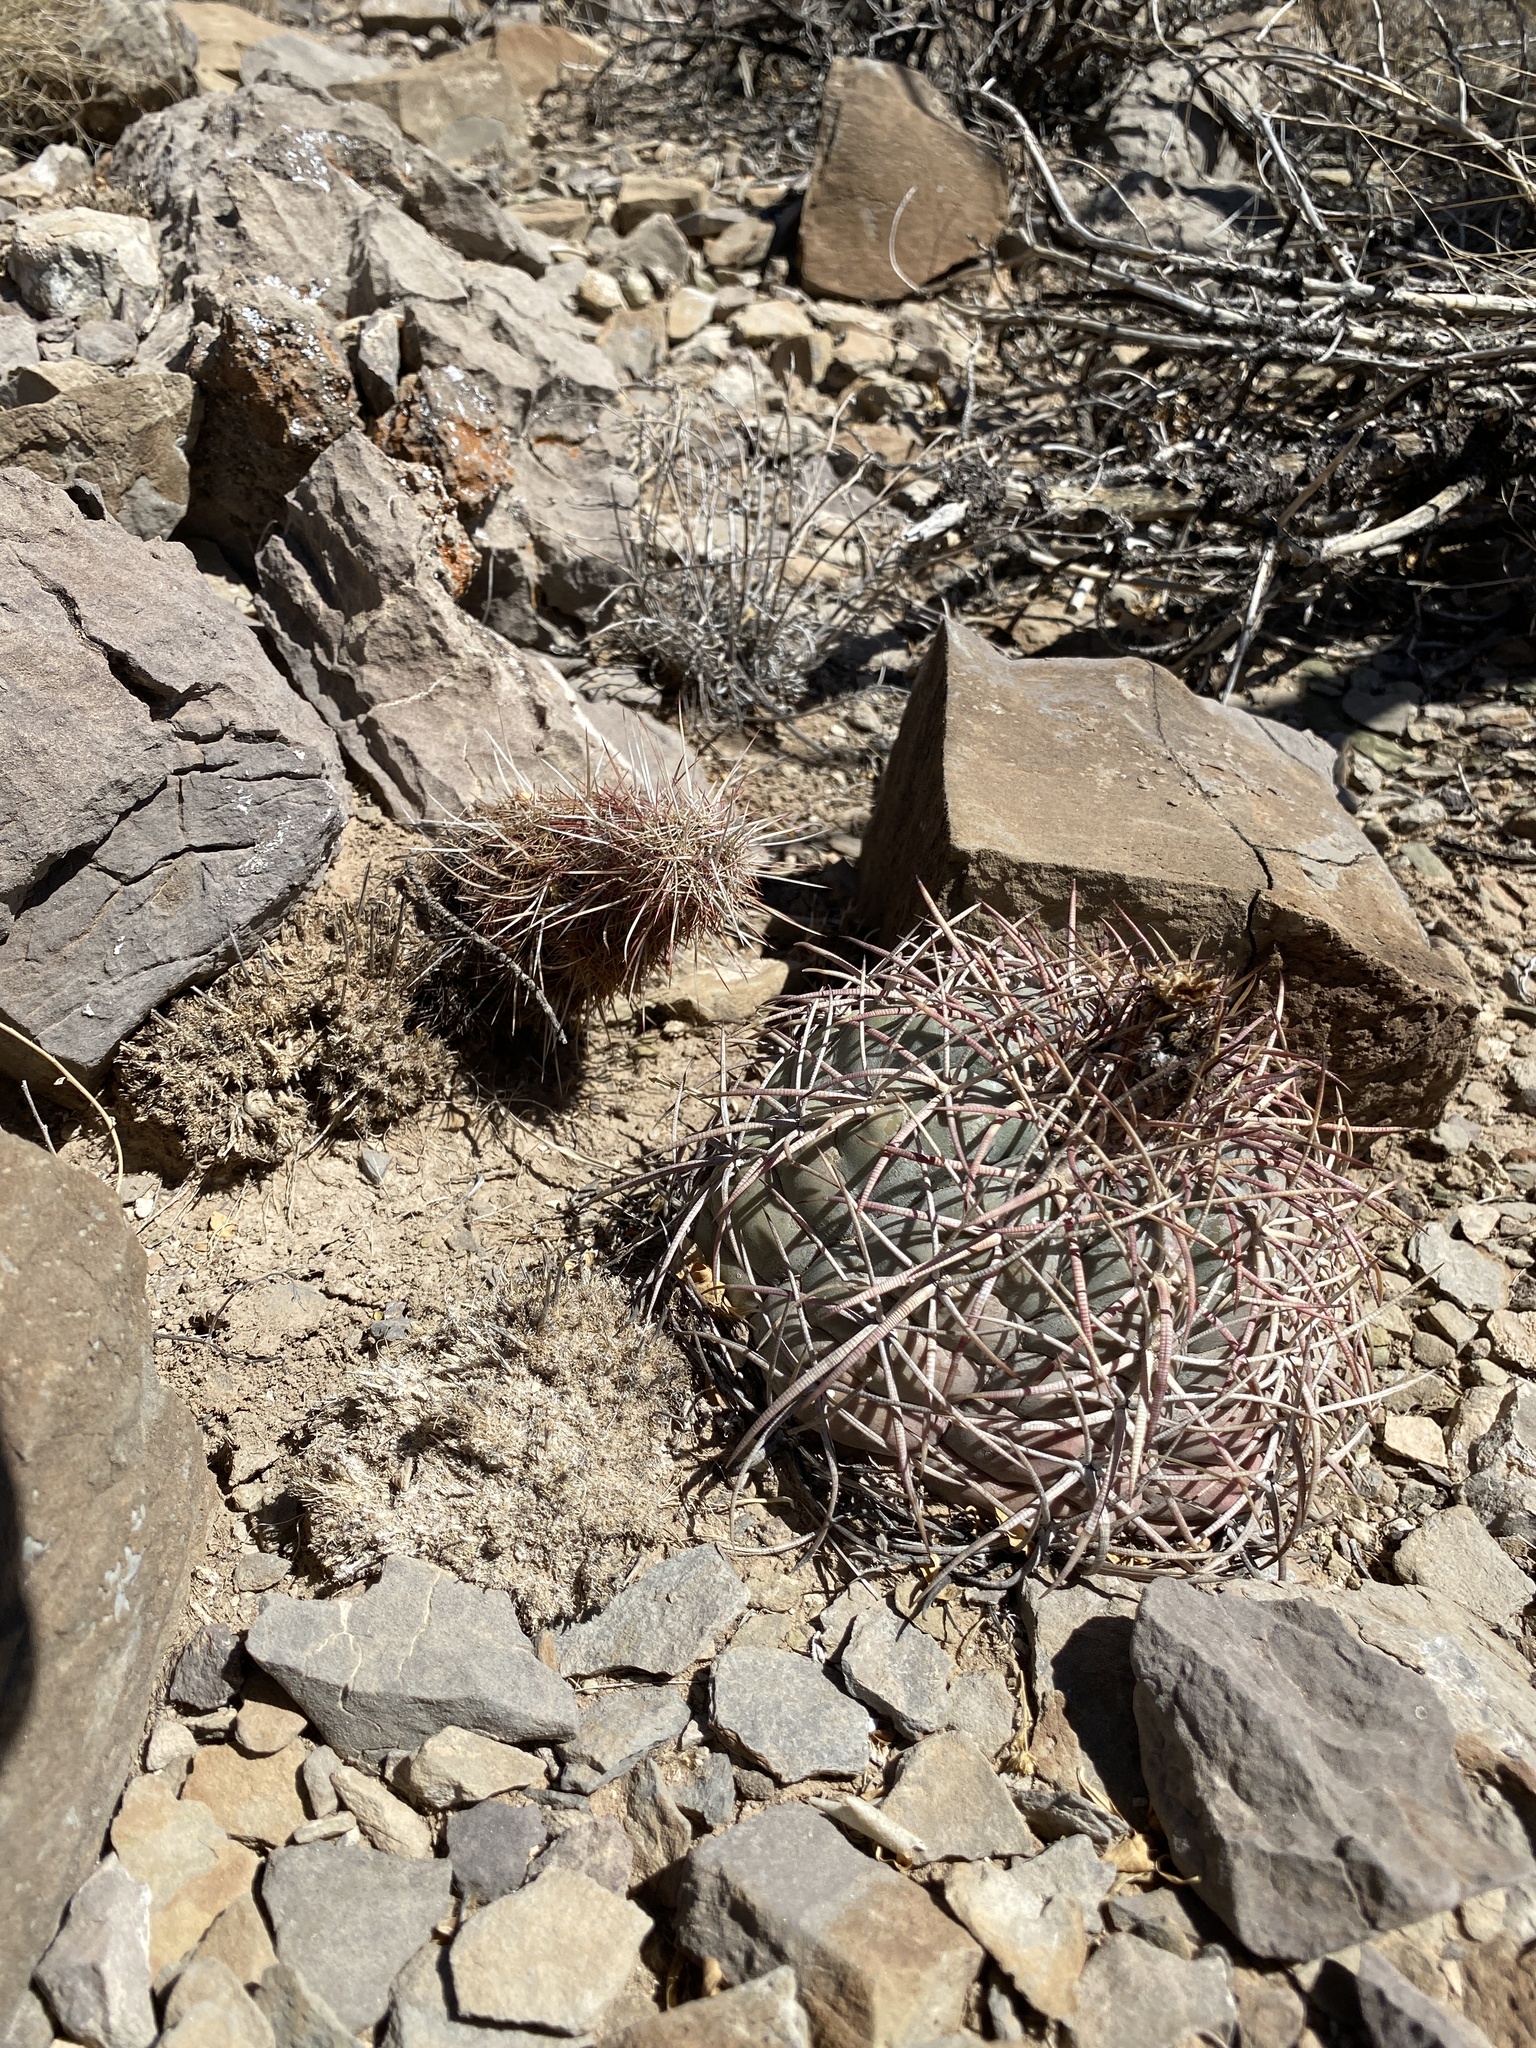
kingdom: Plantae
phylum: Tracheophyta
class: Magnoliopsida
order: Caryophyllales
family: Cactaceae
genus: Echinocereus
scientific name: Echinocereus viridiflorus
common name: Nylon hedgehog cactus
